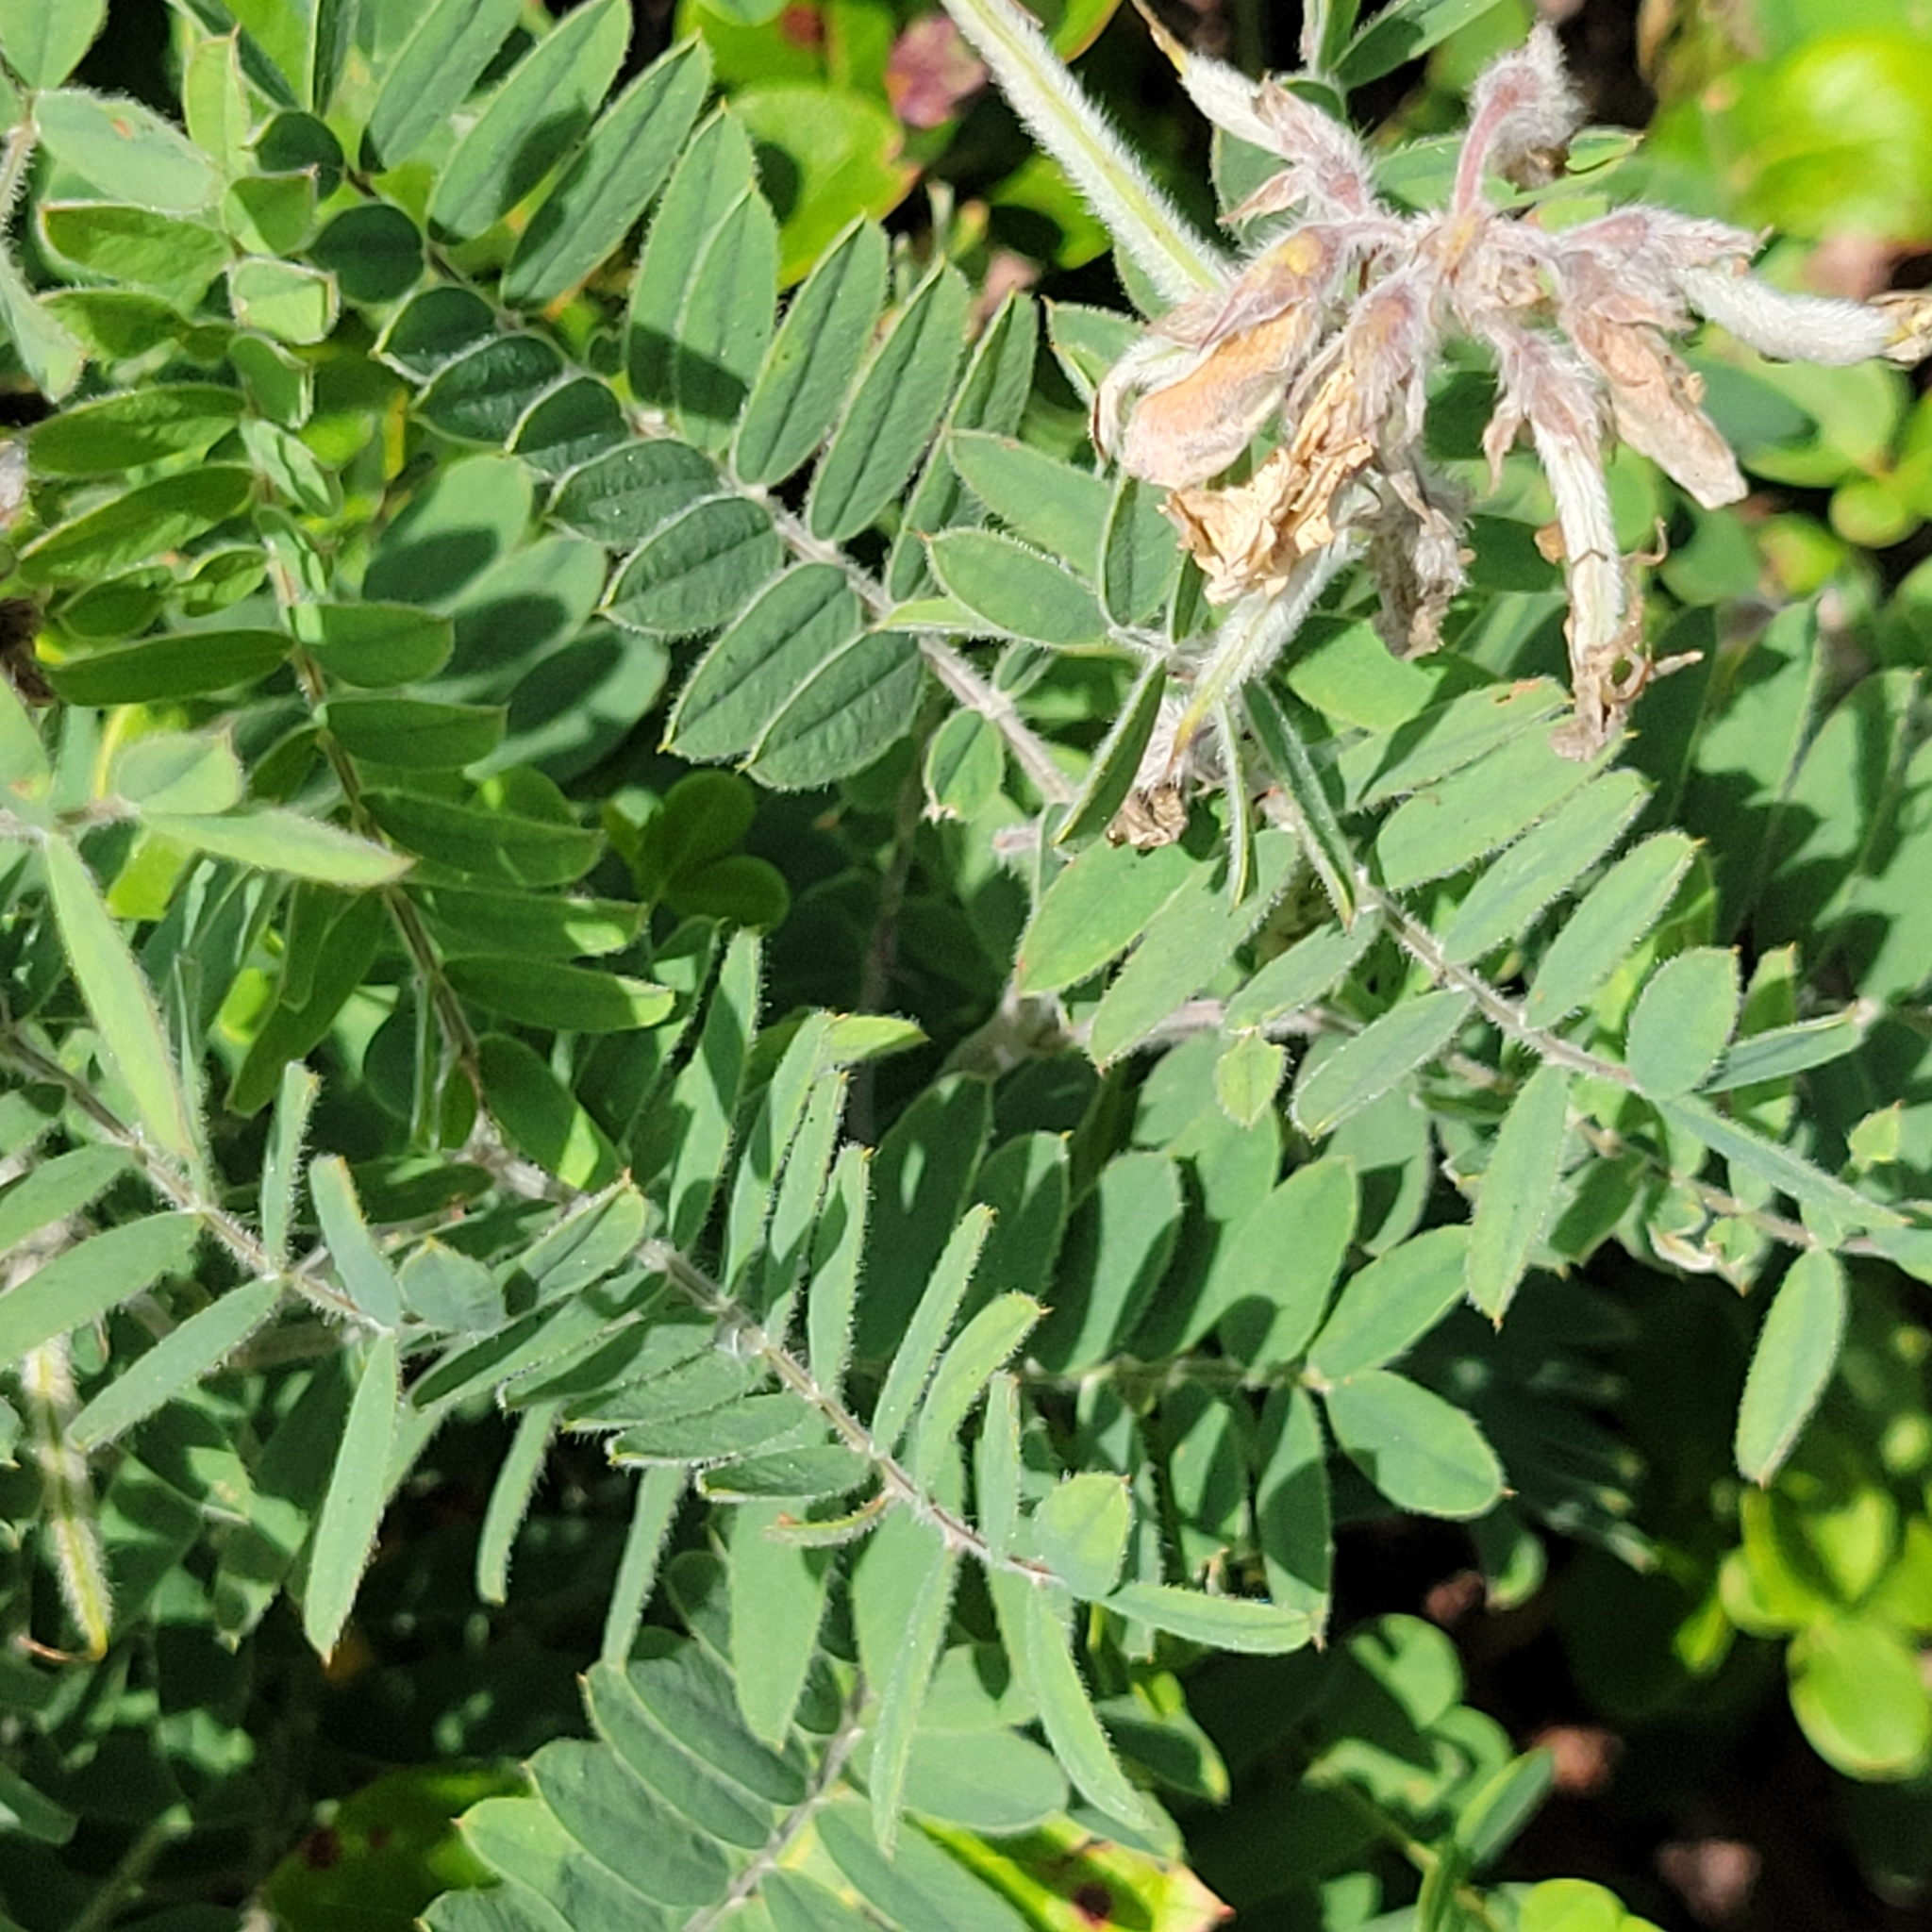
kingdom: Plantae
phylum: Tracheophyta
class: Magnoliopsida
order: Fabales
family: Fabaceae
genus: Tephrosia
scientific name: Tephrosia virginiana
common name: Rabbit-pea
